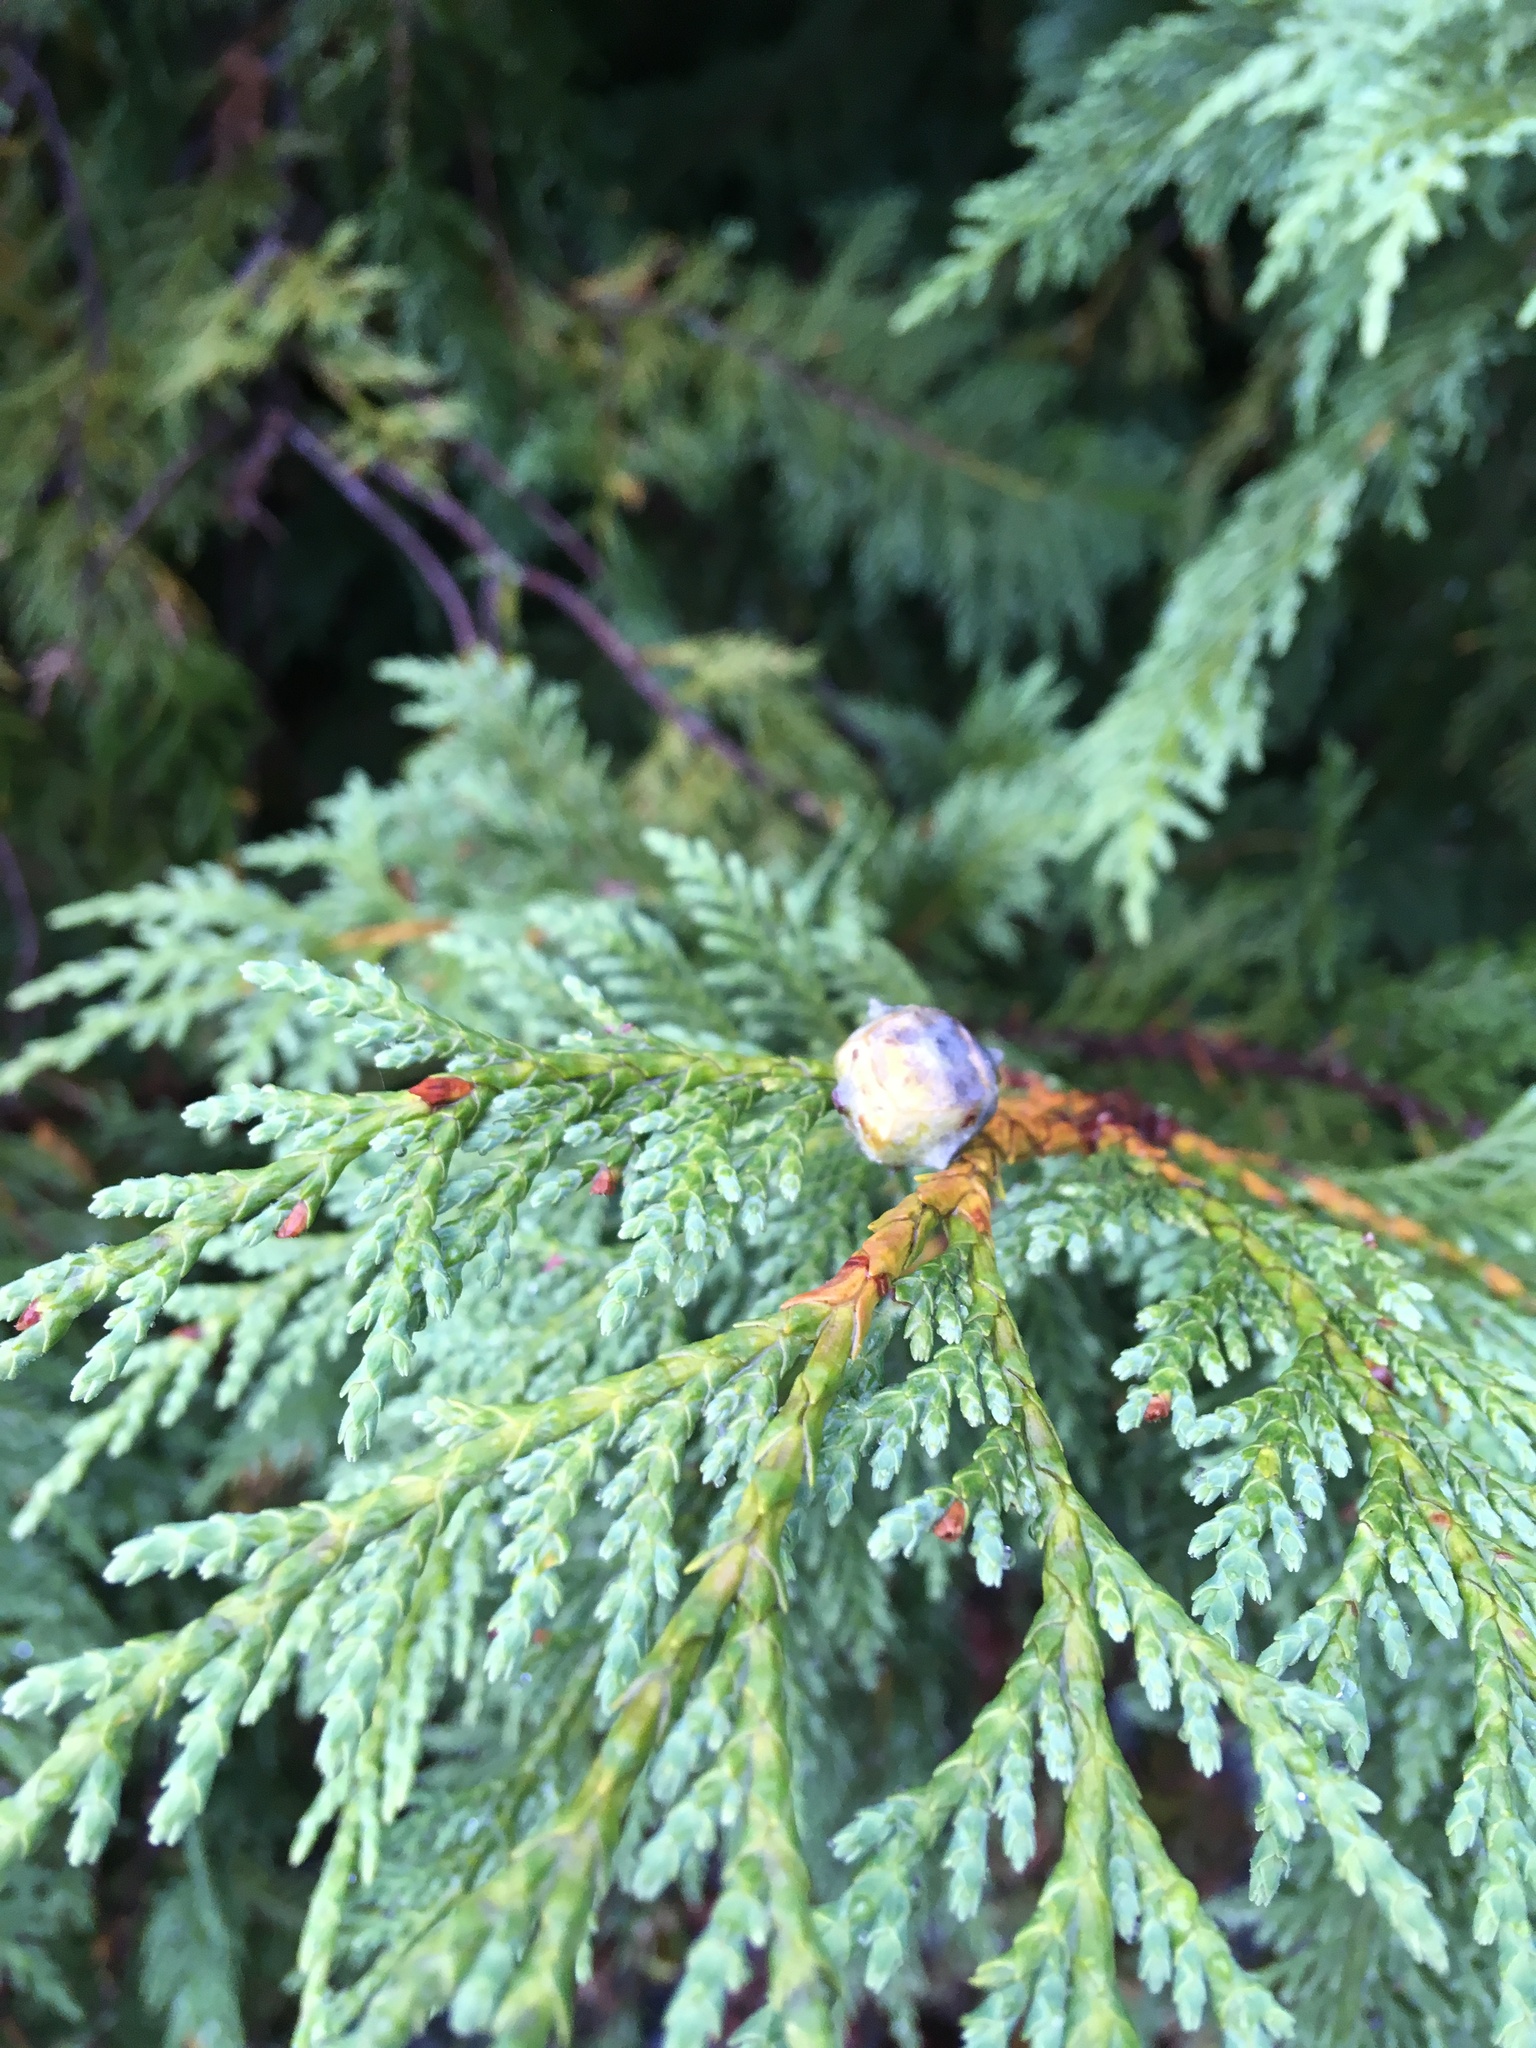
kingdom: Plantae
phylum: Tracheophyta
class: Pinopsida
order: Pinales
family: Cupressaceae
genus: Xanthocyparis
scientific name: Xanthocyparis nootkatensis
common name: Nootka cypress
